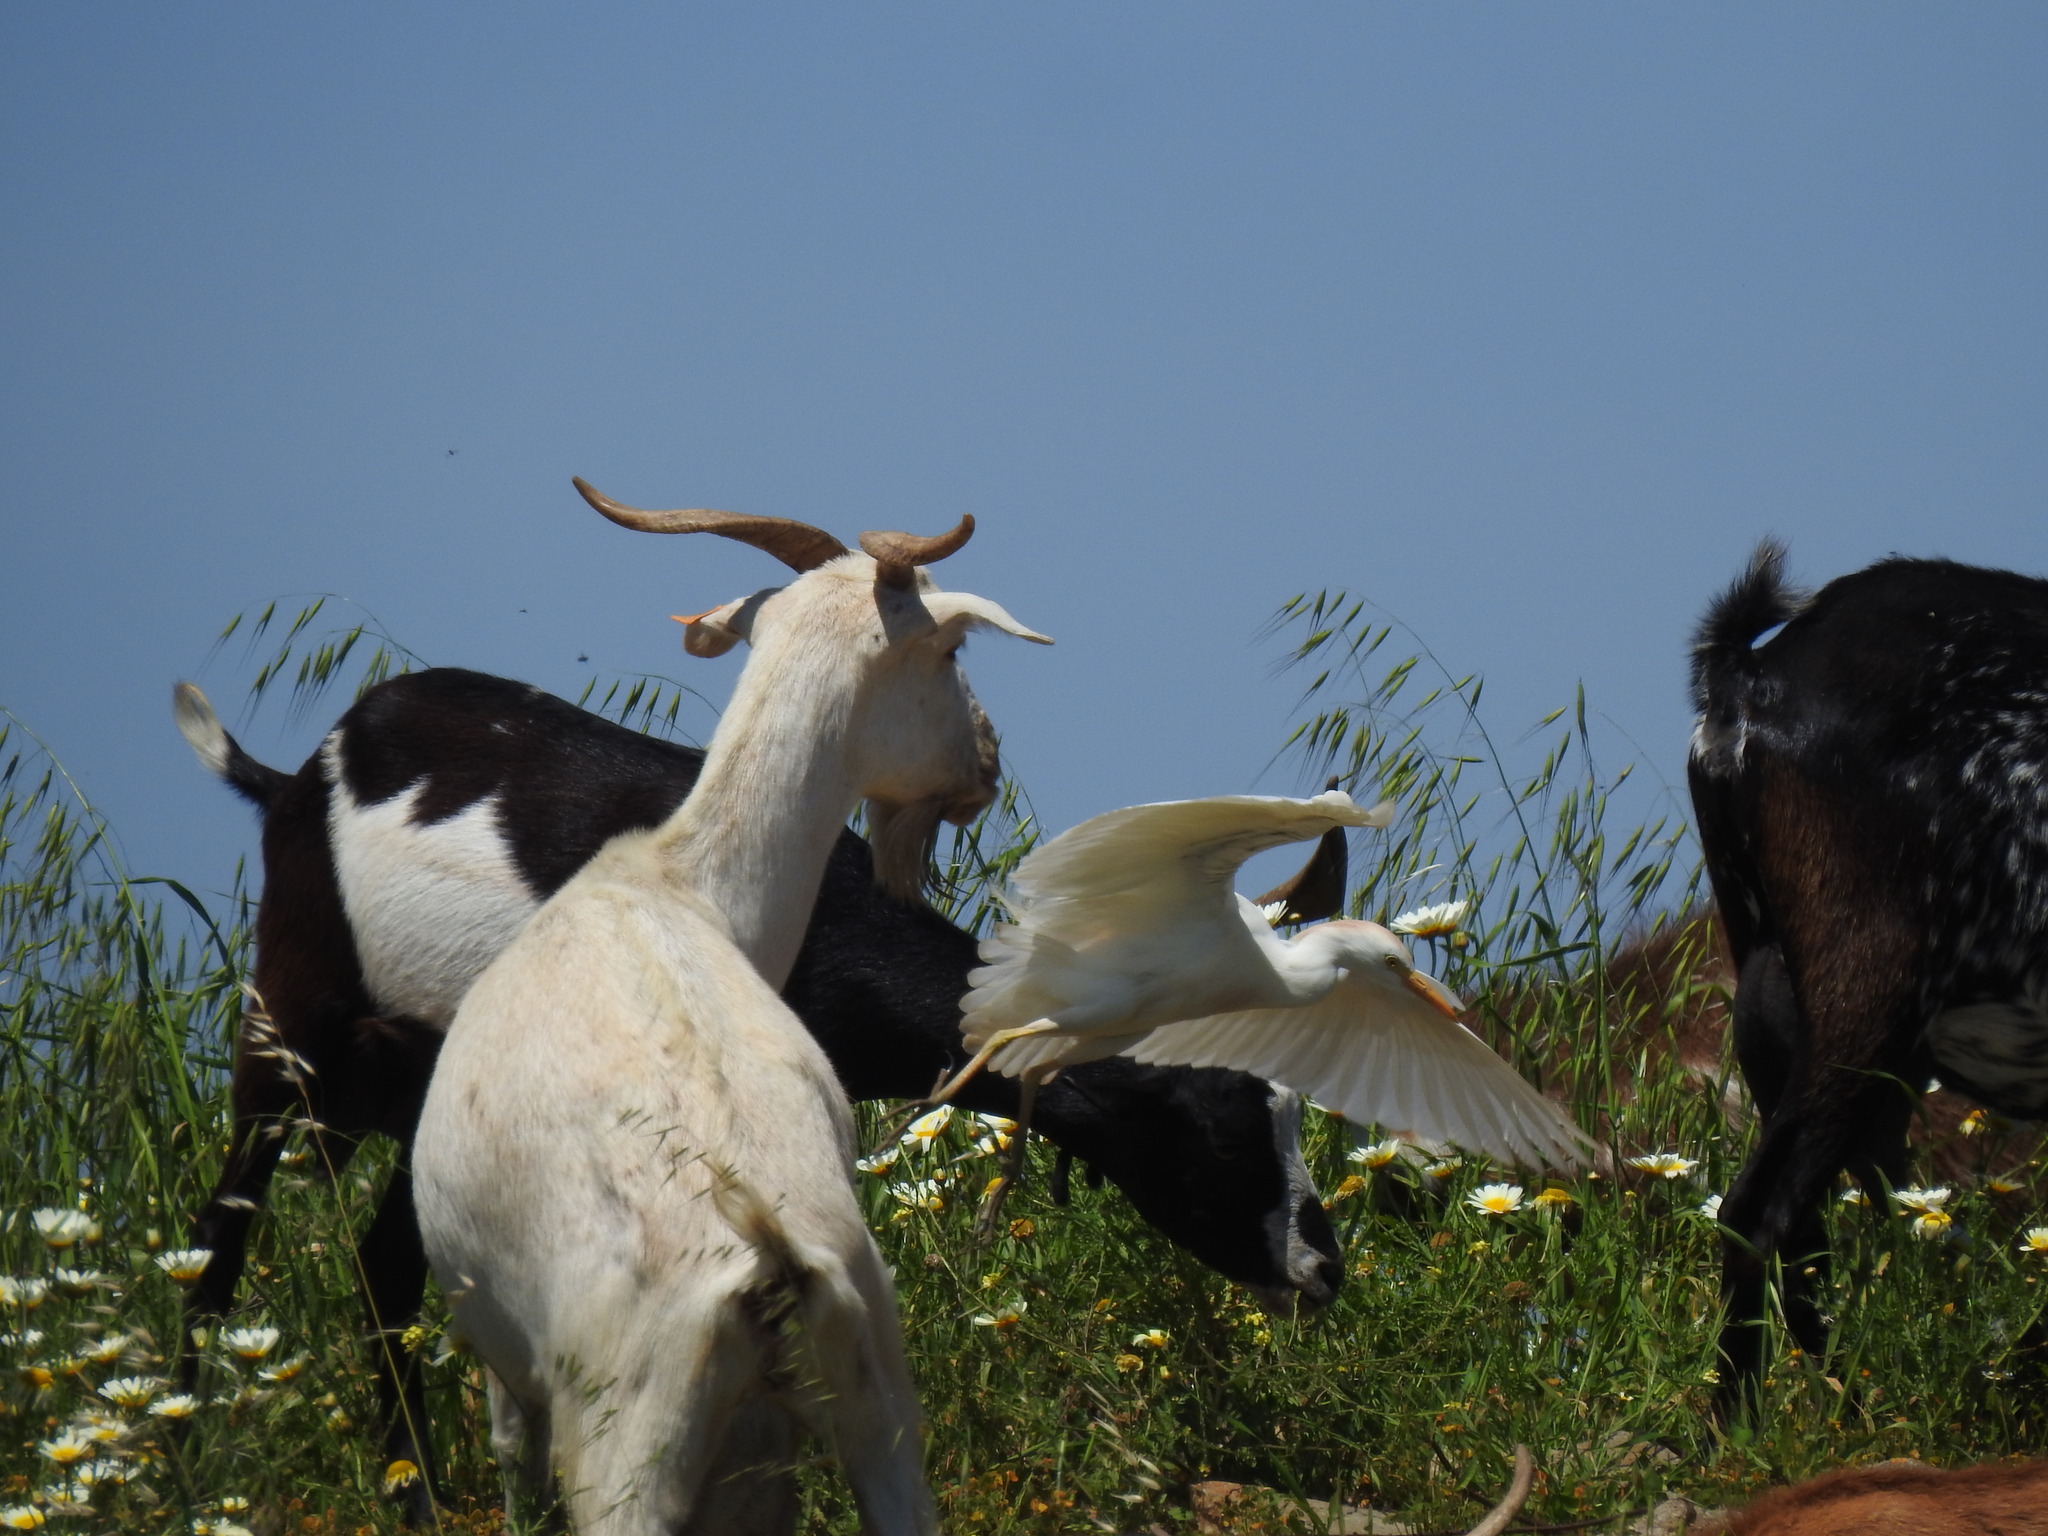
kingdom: Animalia
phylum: Chordata
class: Aves
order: Pelecaniformes
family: Ardeidae
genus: Bubulcus
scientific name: Bubulcus ibis
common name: Cattle egret
